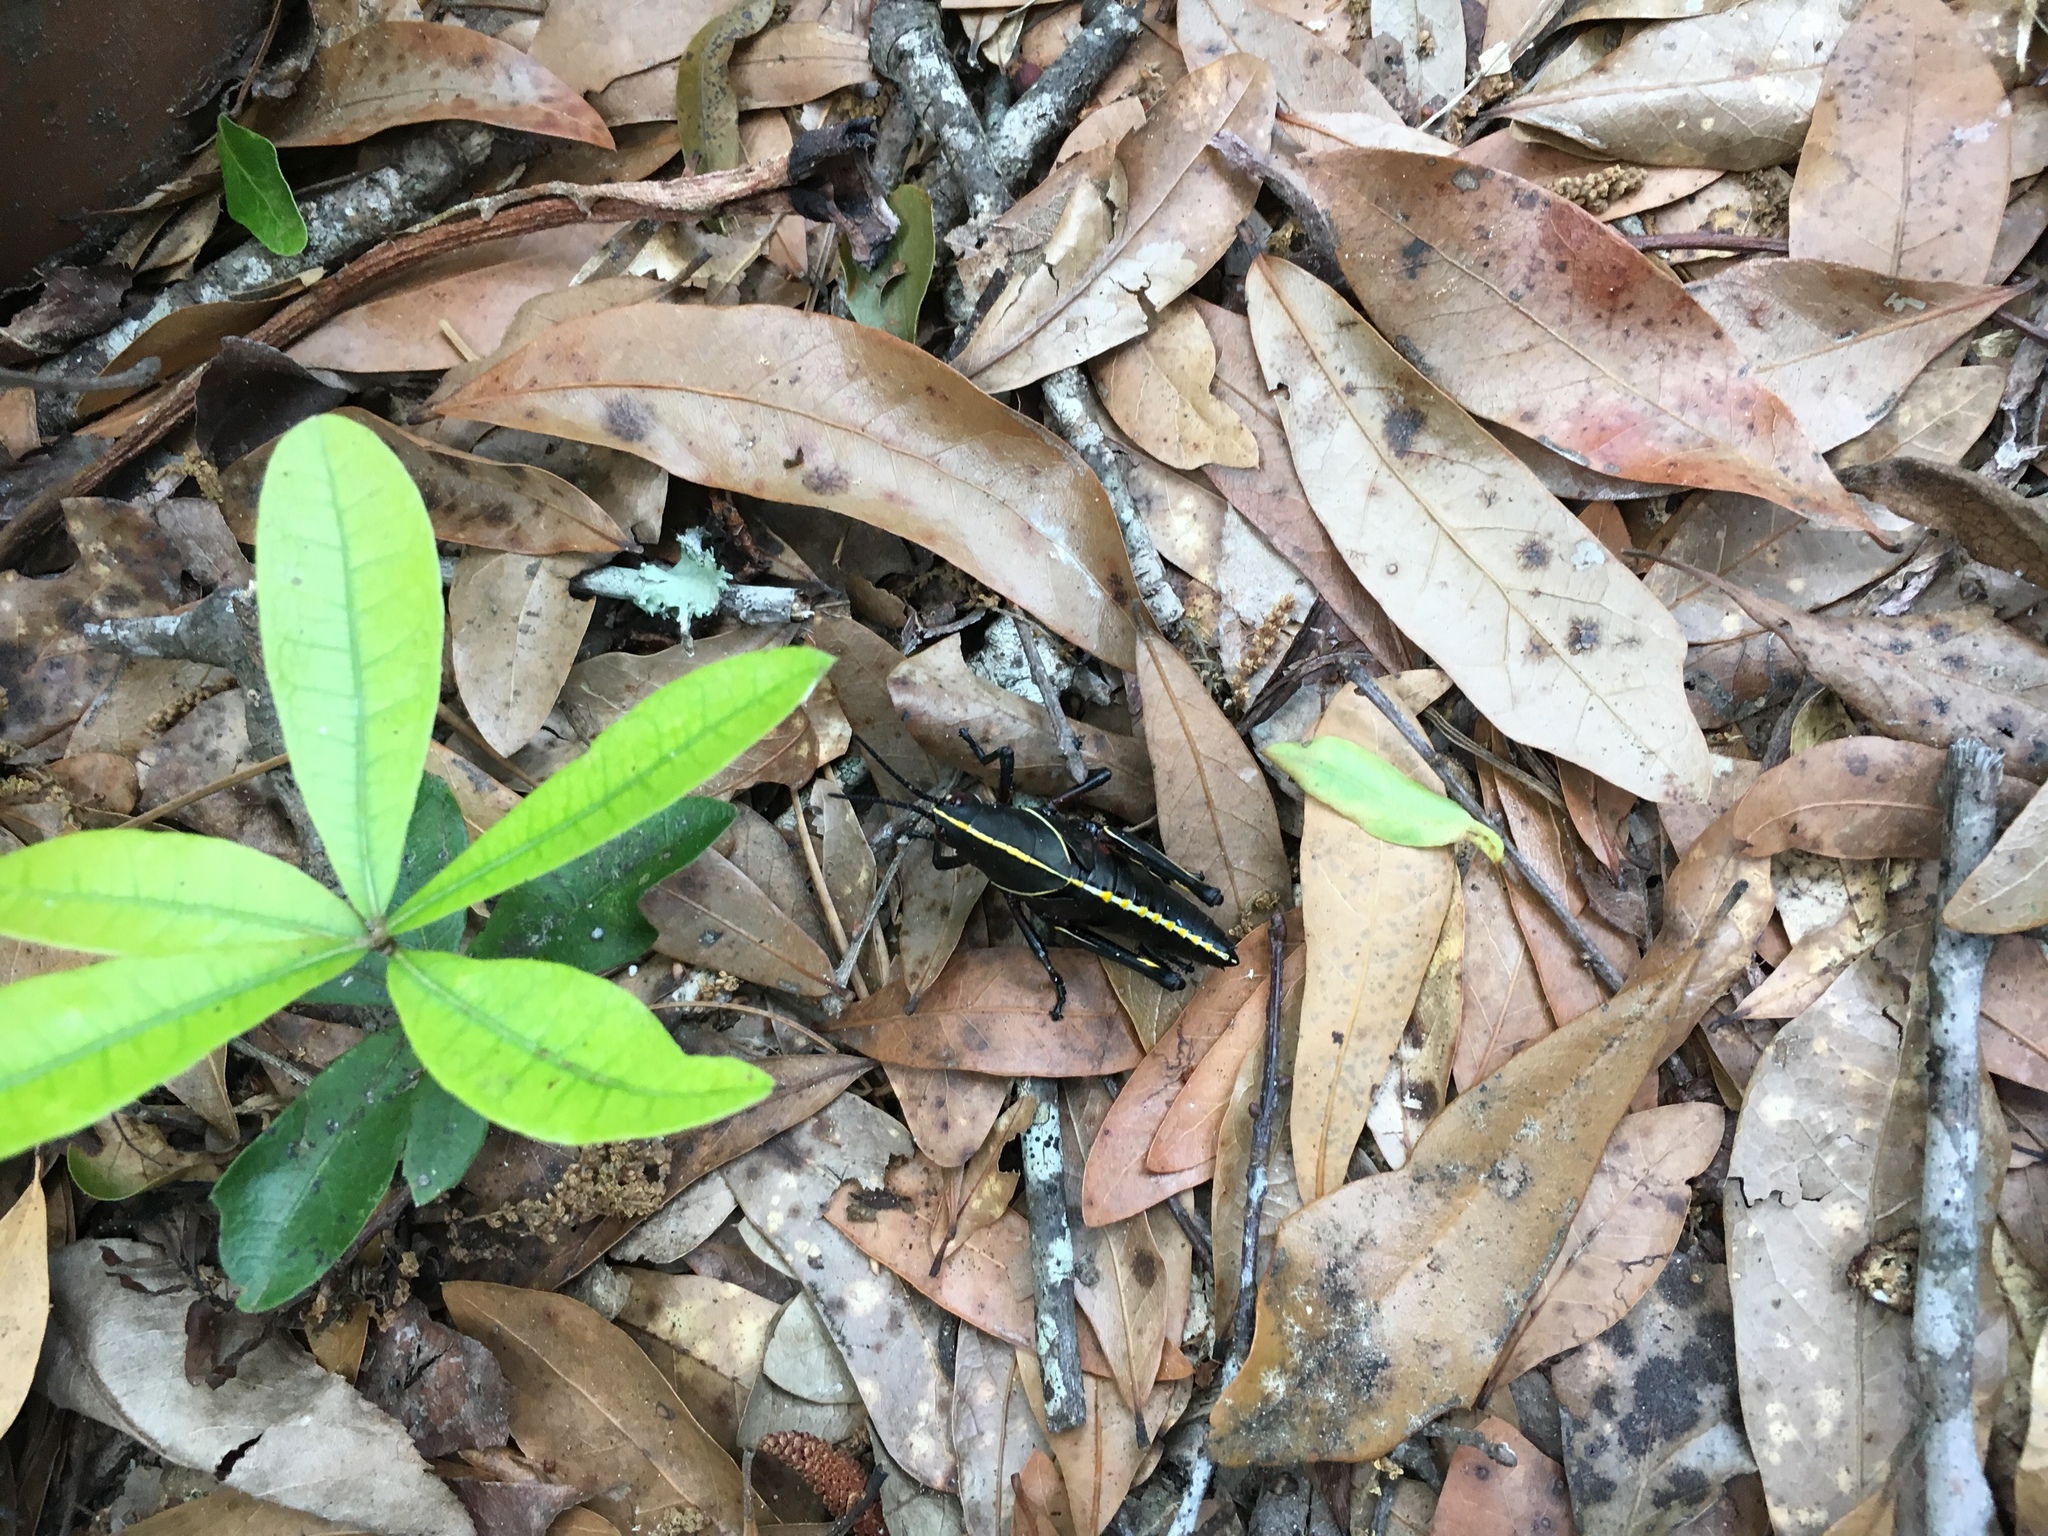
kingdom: Animalia
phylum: Arthropoda
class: Insecta
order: Orthoptera
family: Romaleidae
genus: Romalea
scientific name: Romalea microptera
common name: Eastern lubber grasshopper
